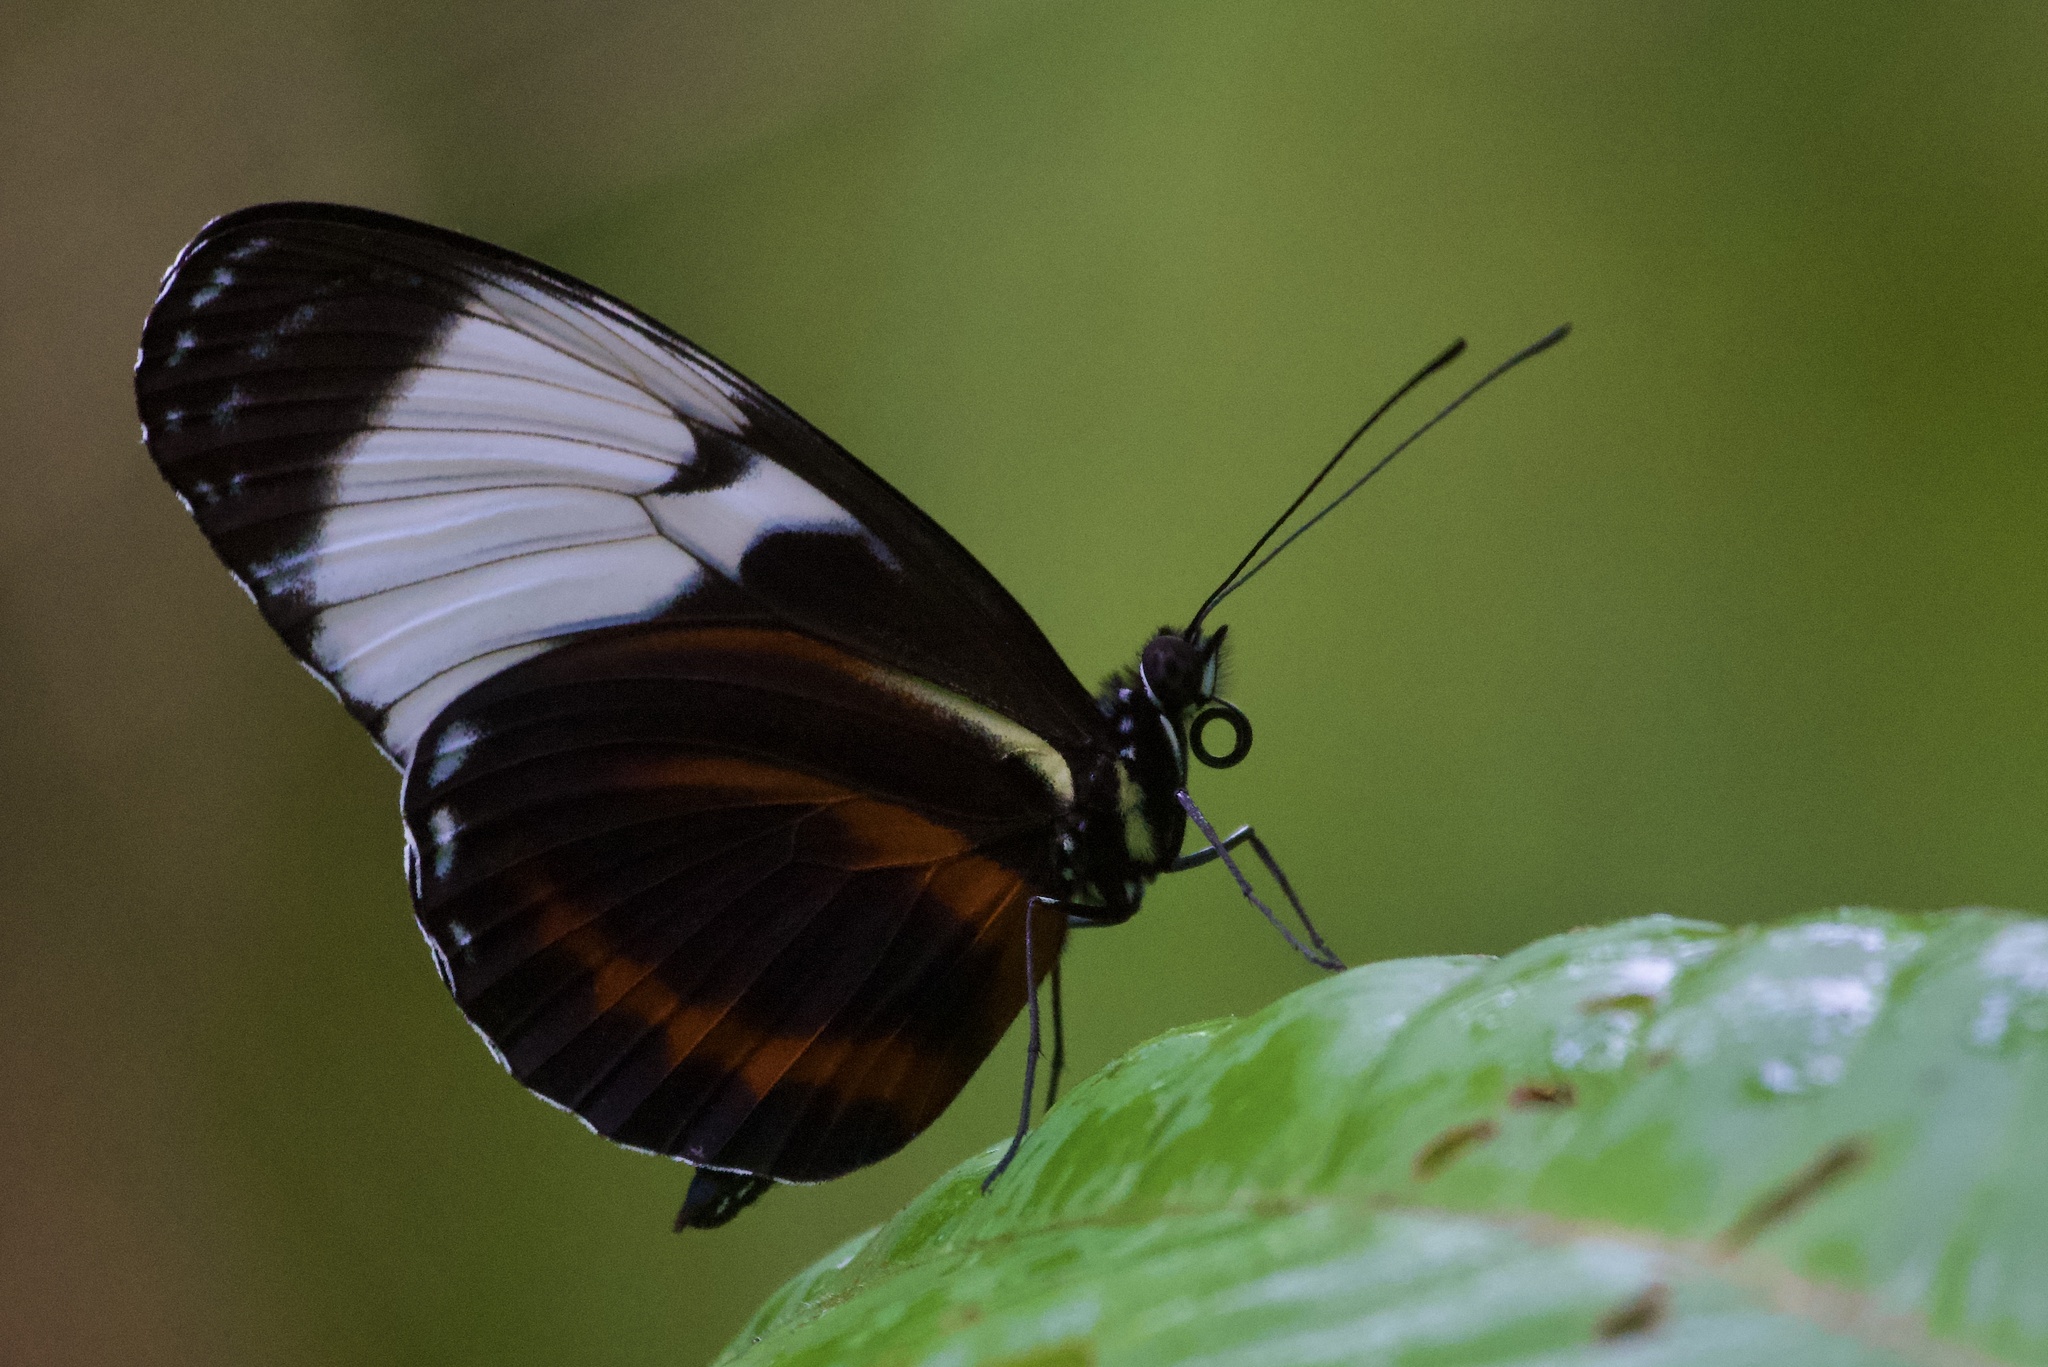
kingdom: Animalia
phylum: Arthropoda
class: Insecta
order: Lepidoptera
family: Nymphalidae
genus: Heliconius
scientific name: Heliconius cydno
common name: Cydno longwing
